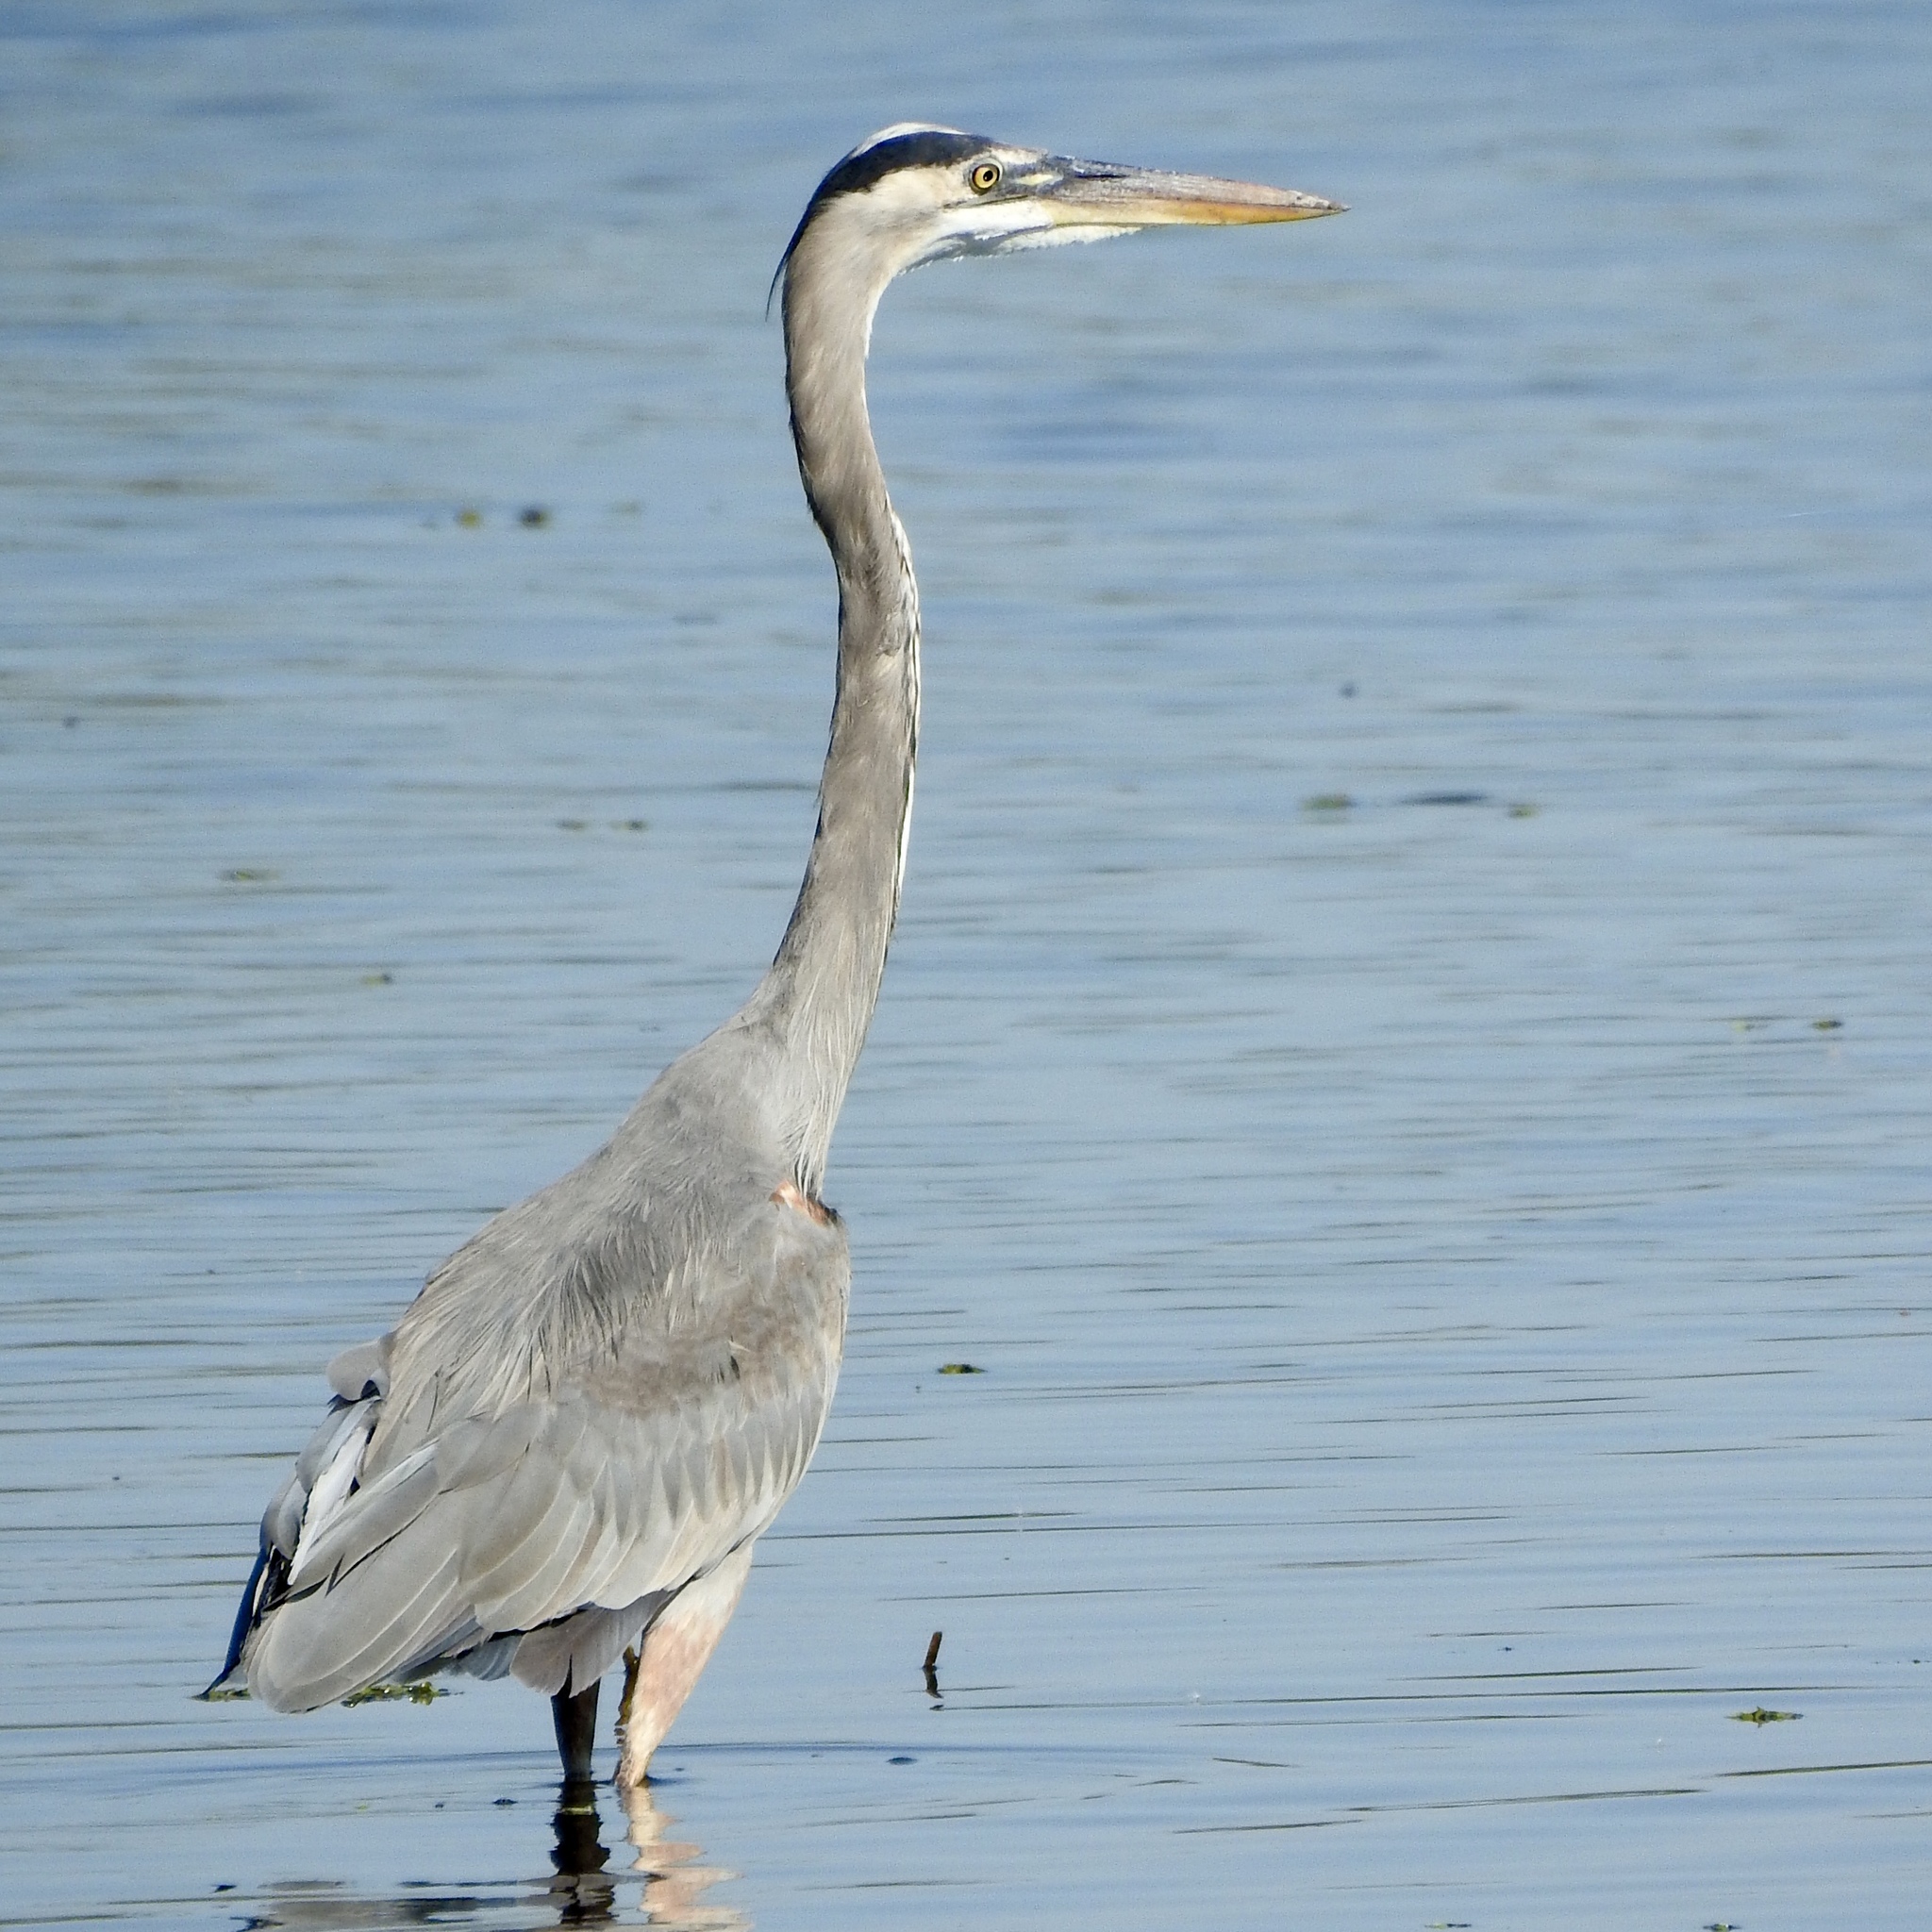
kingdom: Animalia
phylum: Chordata
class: Aves
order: Pelecaniformes
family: Ardeidae
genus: Ardea
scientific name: Ardea herodias
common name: Great blue heron
